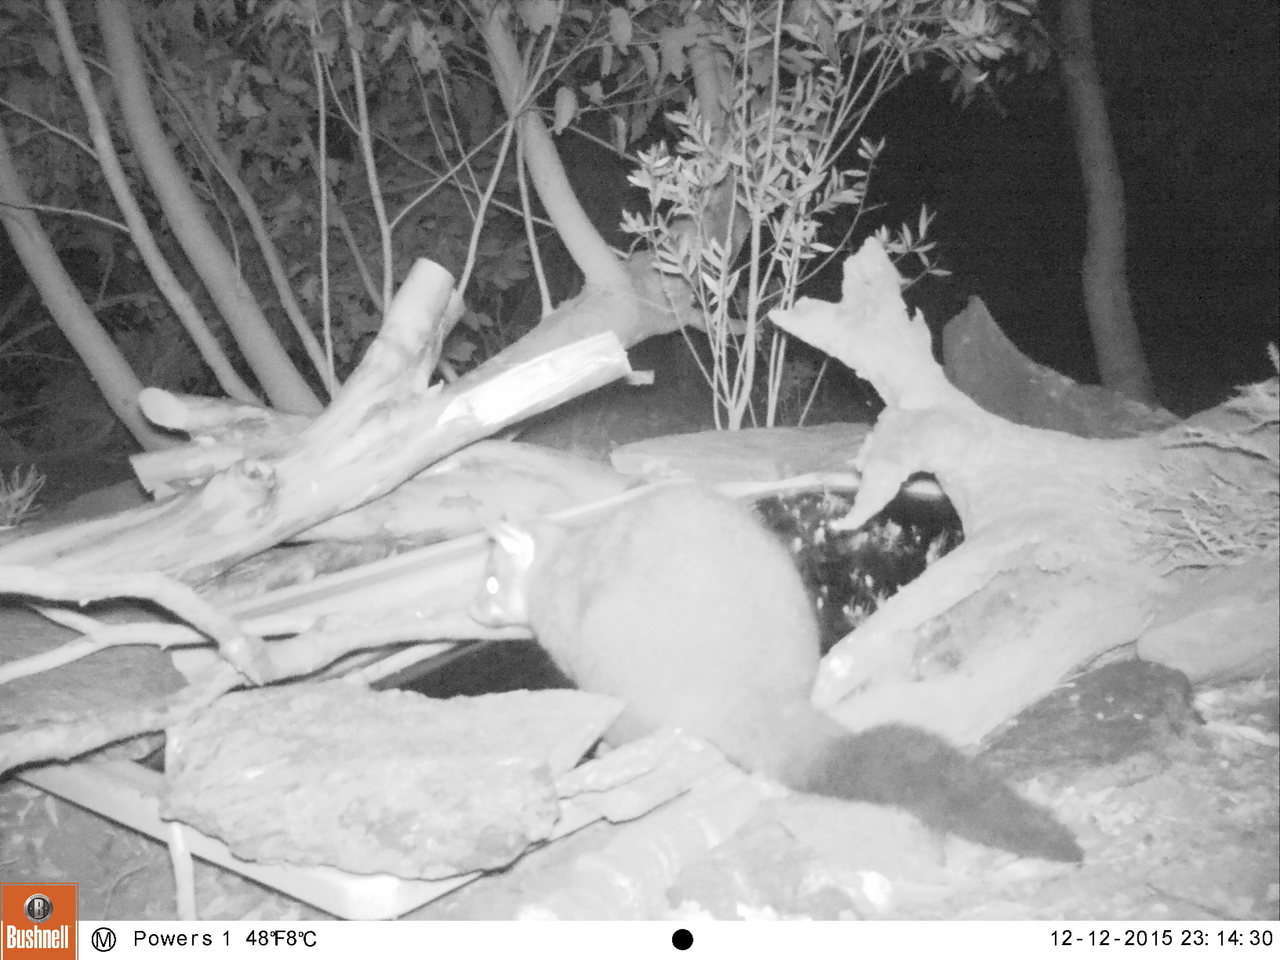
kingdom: Animalia
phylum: Chordata
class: Mammalia
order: Diprotodontia
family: Phalangeridae
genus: Trichosurus
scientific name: Trichosurus vulpecula
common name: Common brushtail
